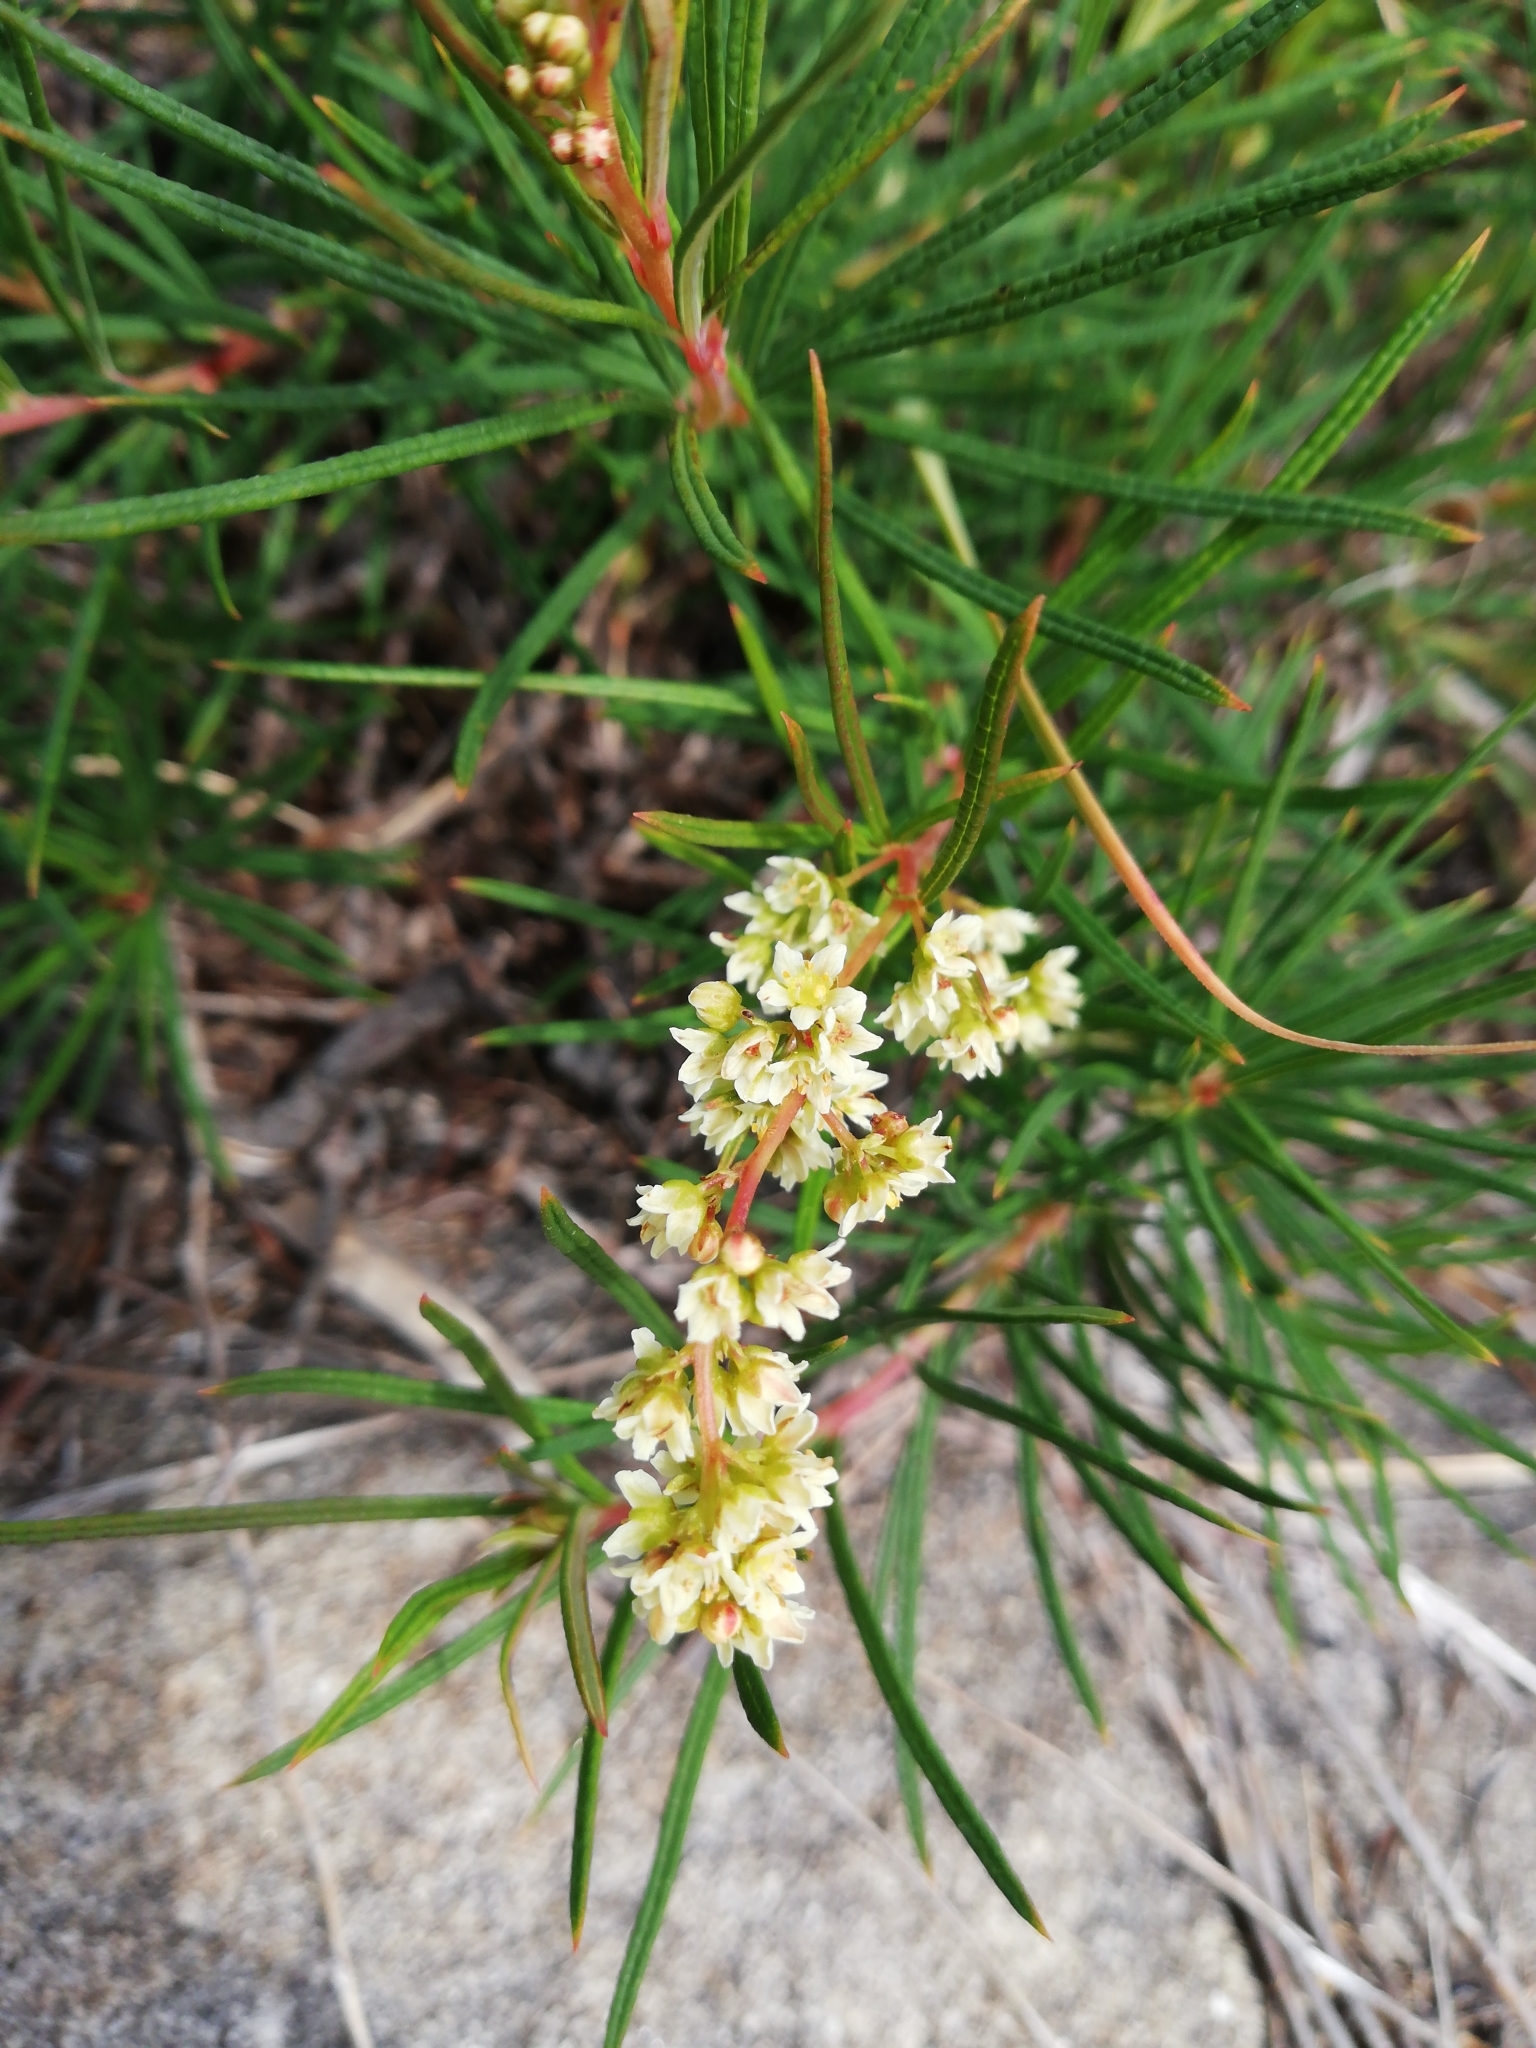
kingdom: Plantae
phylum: Tracheophyta
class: Magnoliopsida
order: Sapindales
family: Anacardiaceae
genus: Searsia
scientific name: Searsia rosmarinifolia
